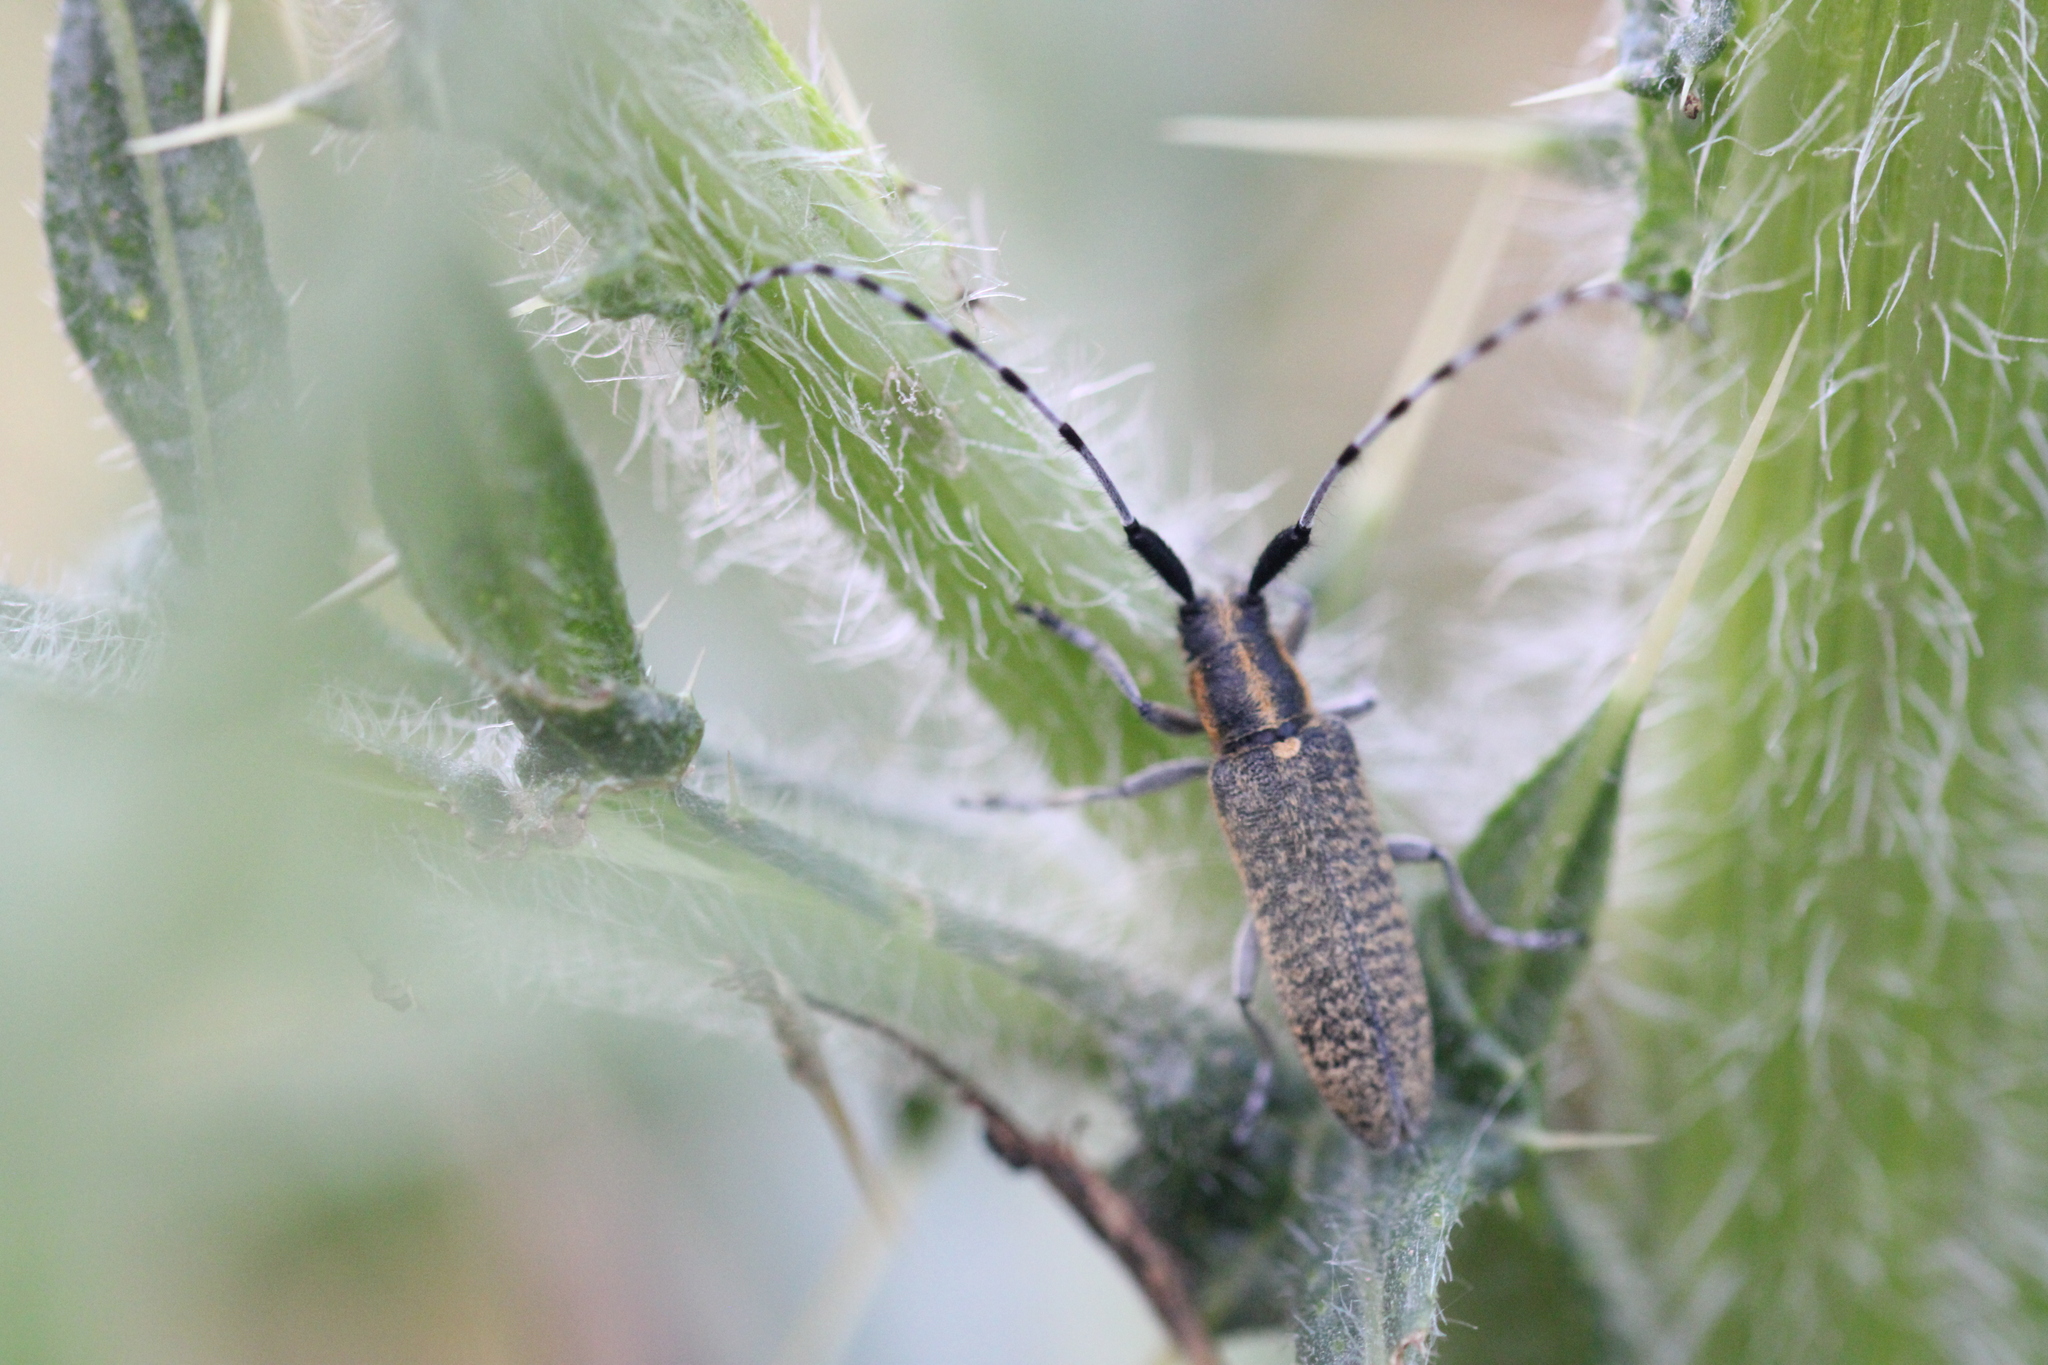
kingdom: Animalia
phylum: Arthropoda
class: Insecta
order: Coleoptera
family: Cerambycidae
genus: Agapanthia
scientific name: Agapanthia villosoviridescens
